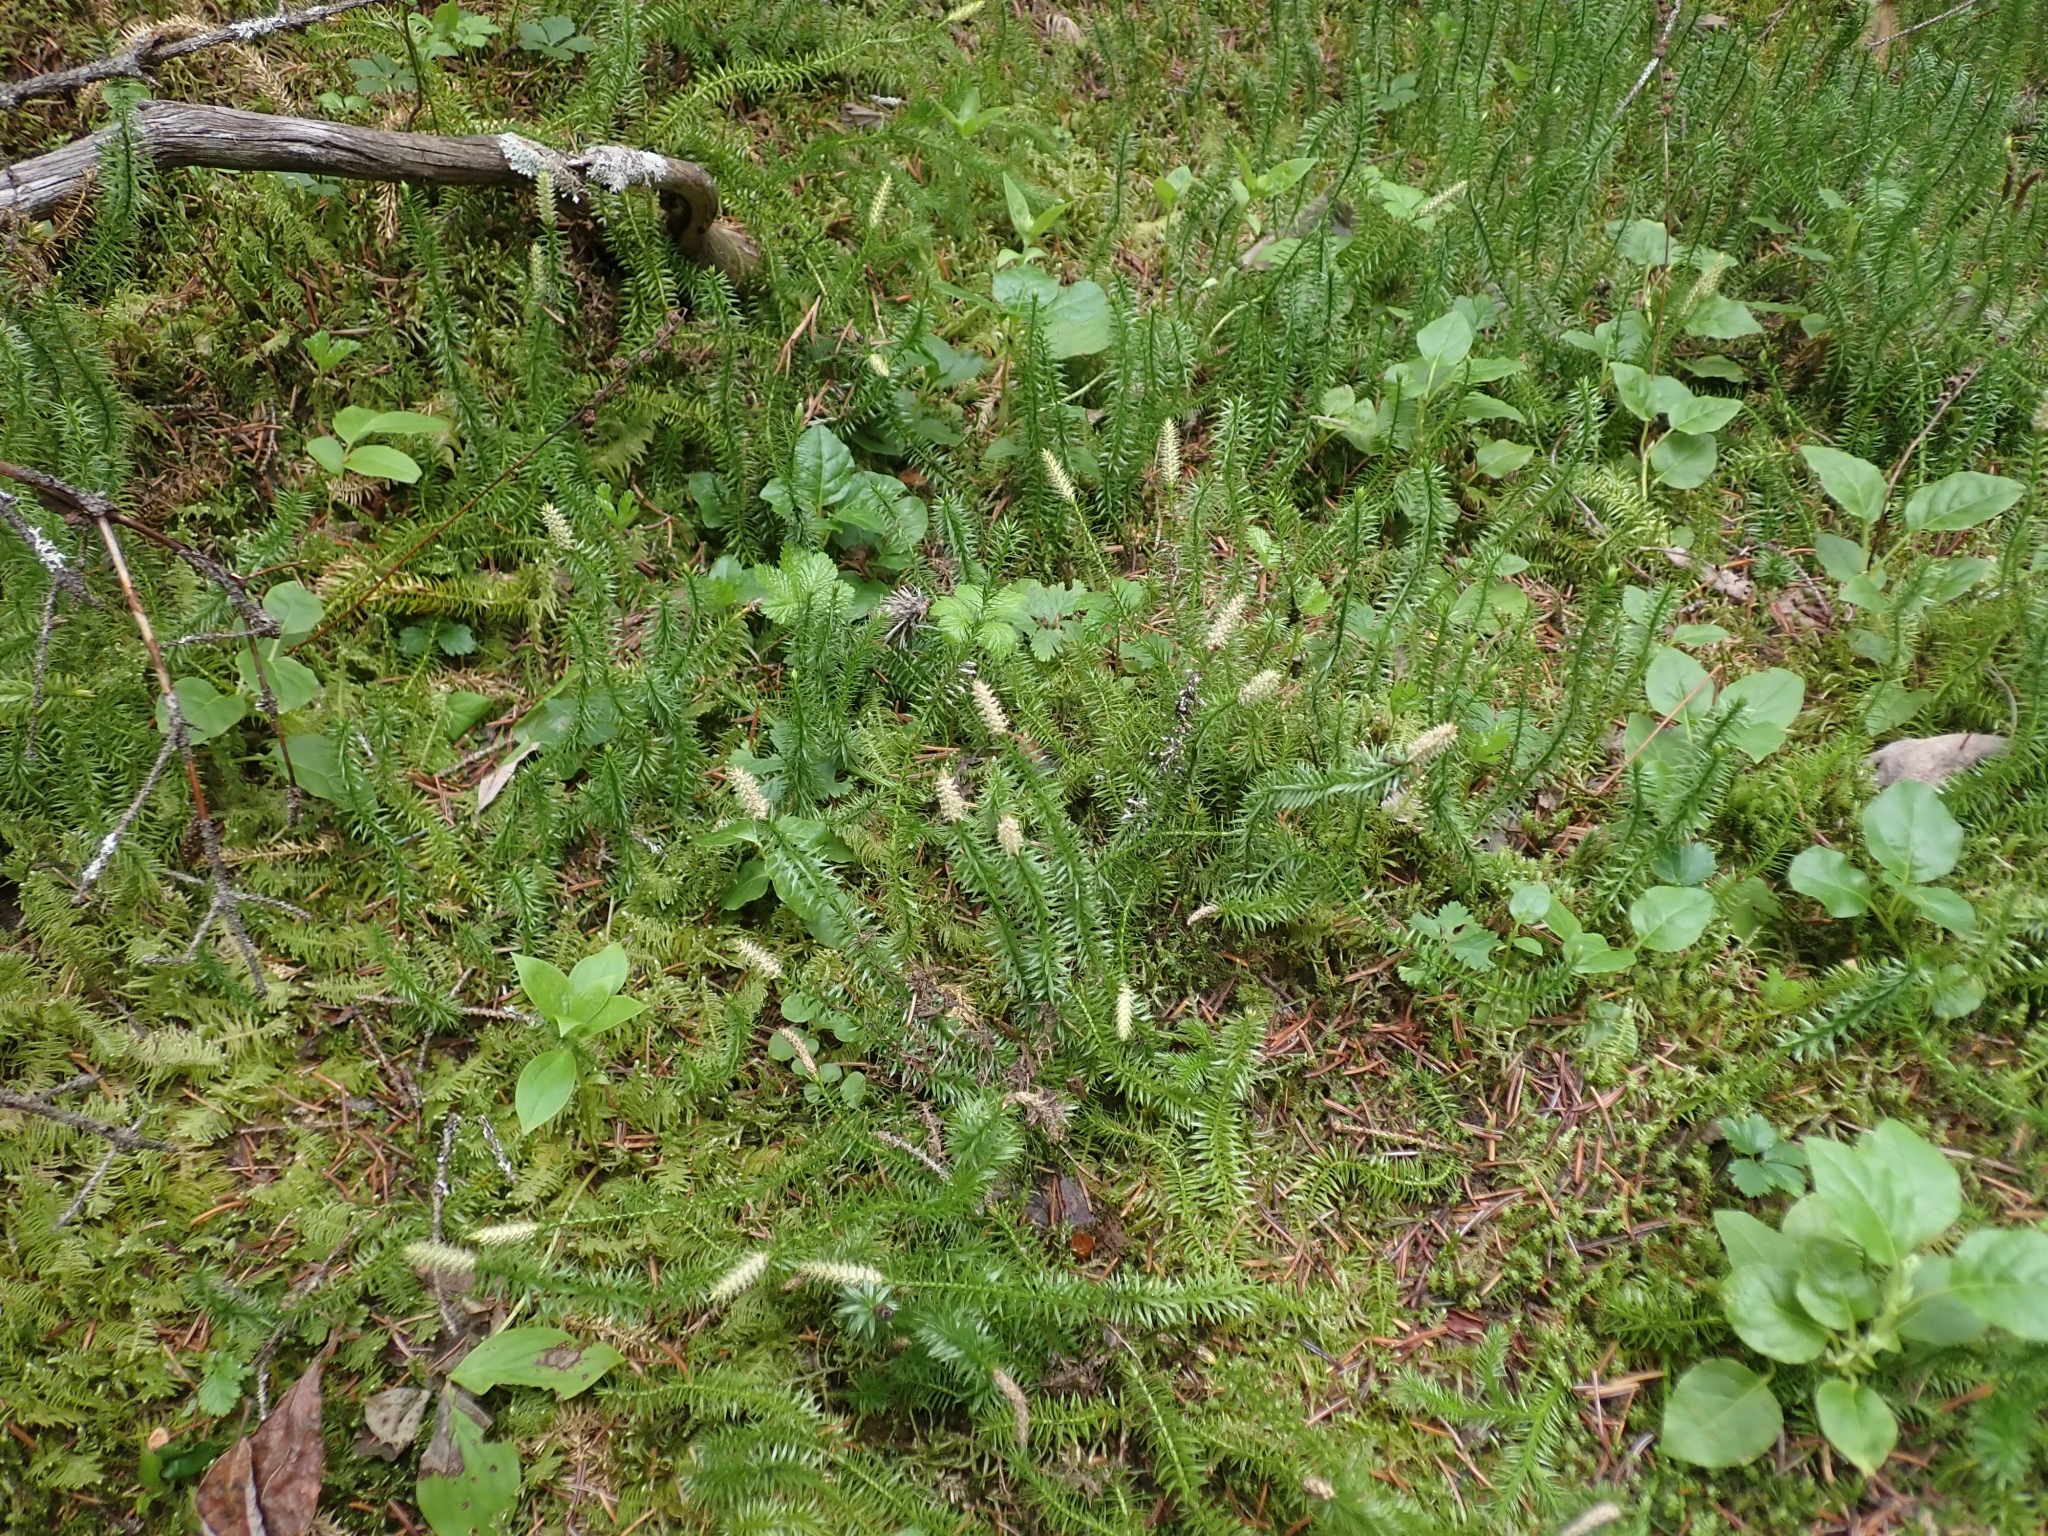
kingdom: Plantae
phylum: Tracheophyta
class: Lycopodiopsida
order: Lycopodiales
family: Lycopodiaceae
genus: Spinulum
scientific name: Spinulum annotinum
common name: Interrupted club-moss
